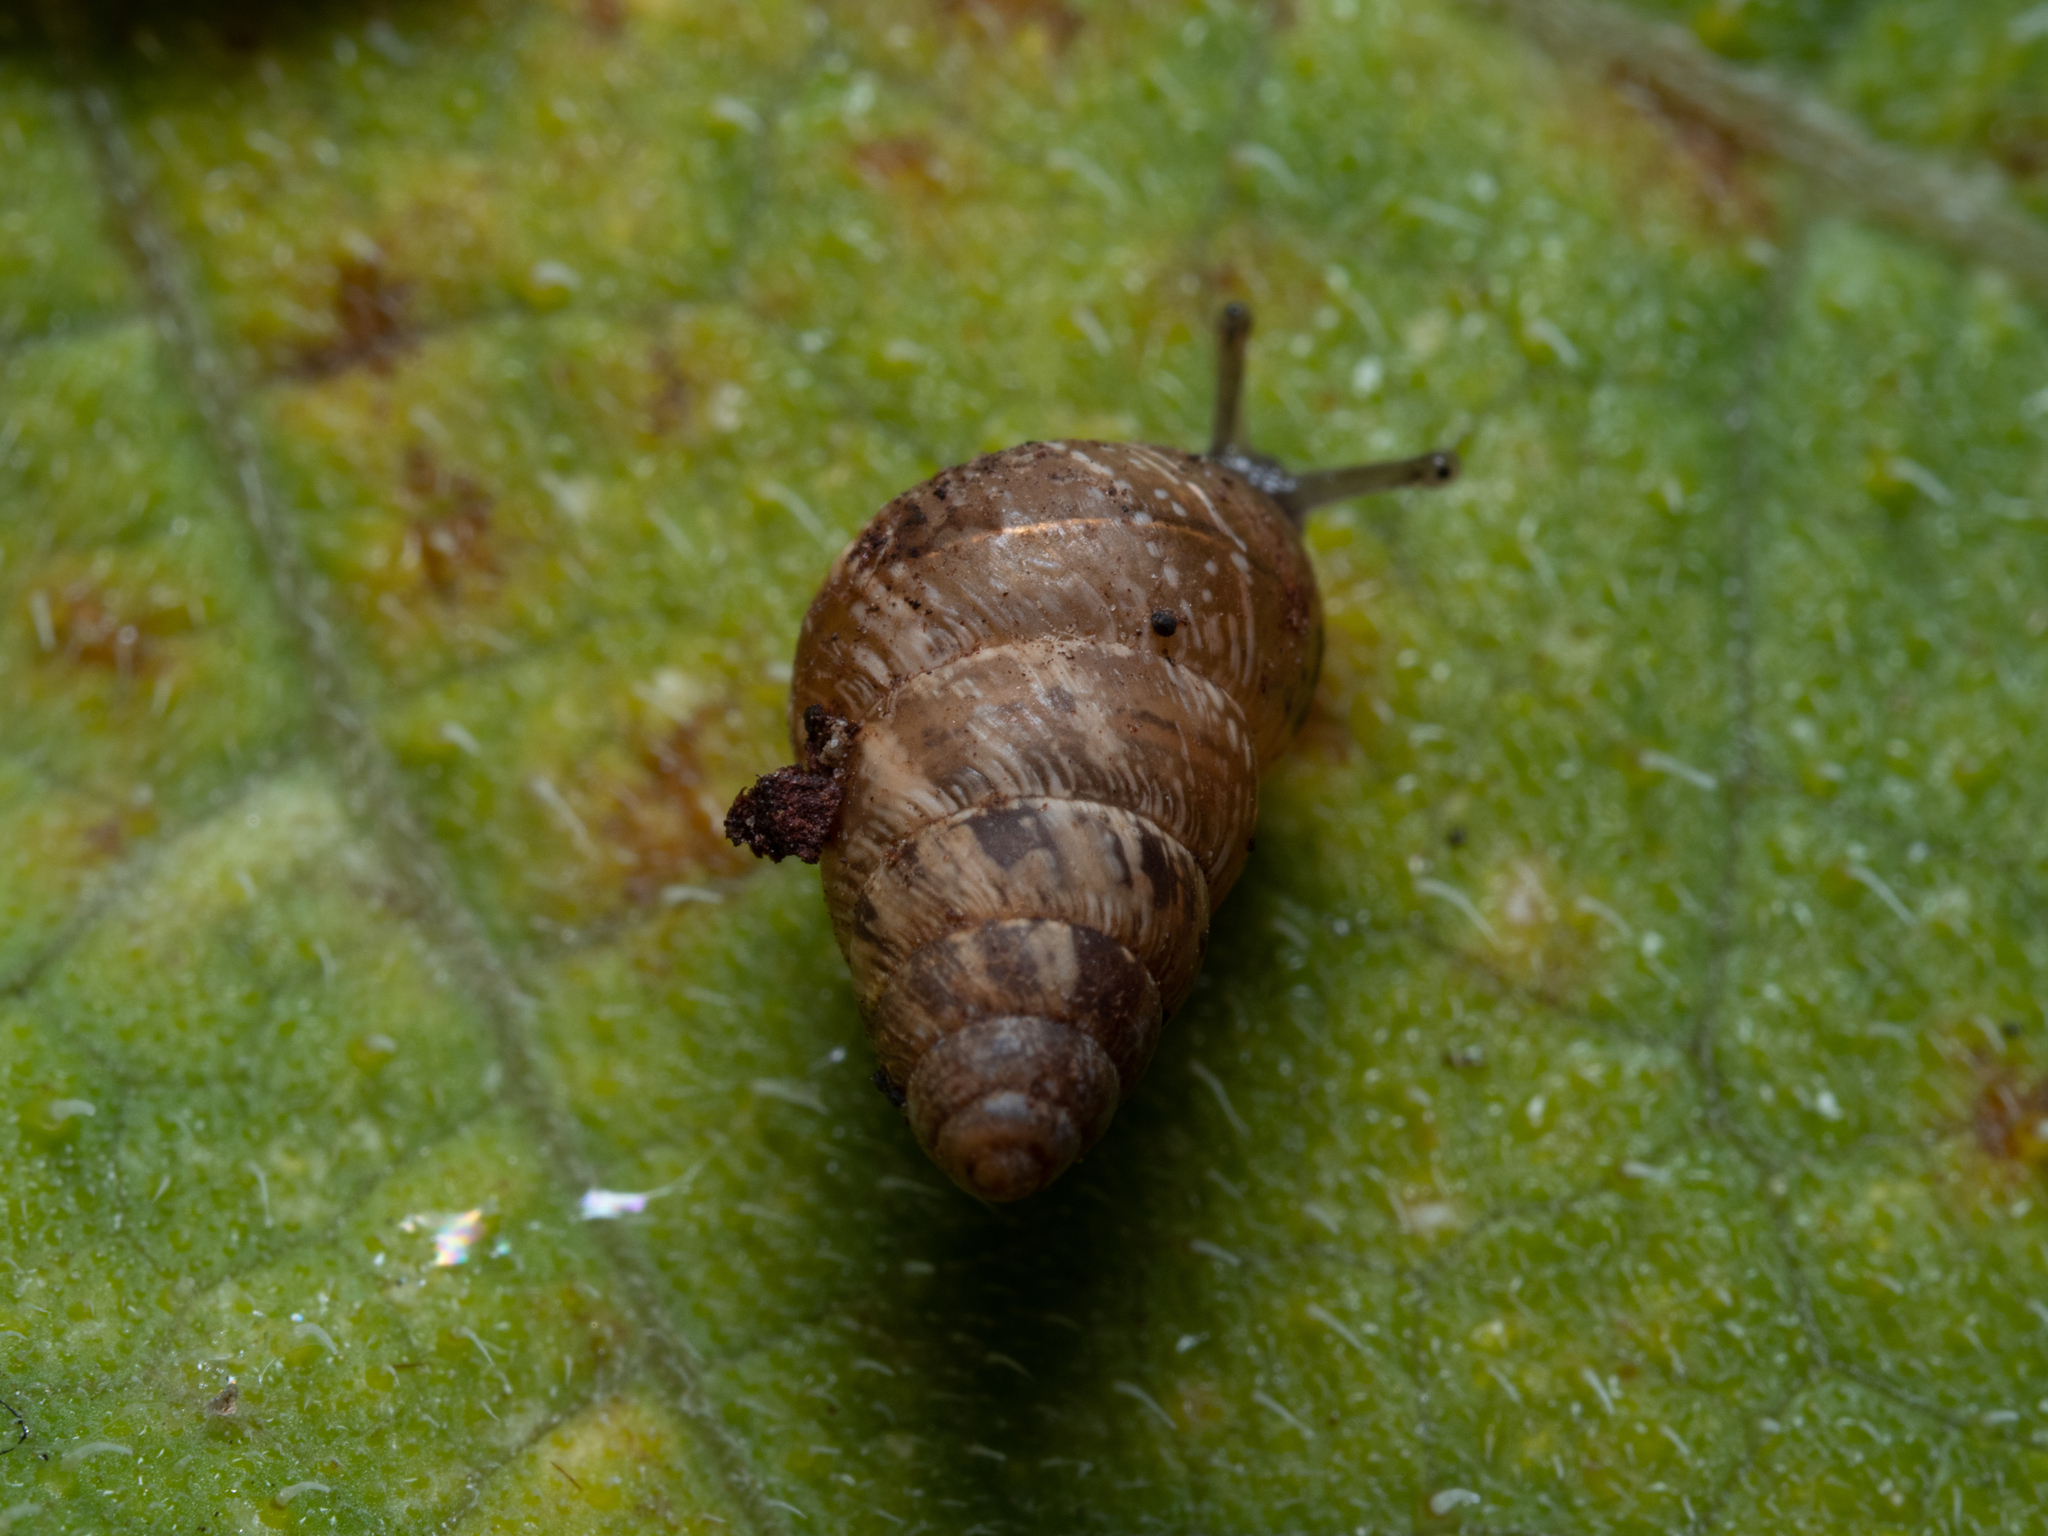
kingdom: Animalia
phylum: Mollusca
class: Gastropoda
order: Stylommatophora
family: Geomitridae
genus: Cochlicella
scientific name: Cochlicella barbara
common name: Potbellied helicellid
